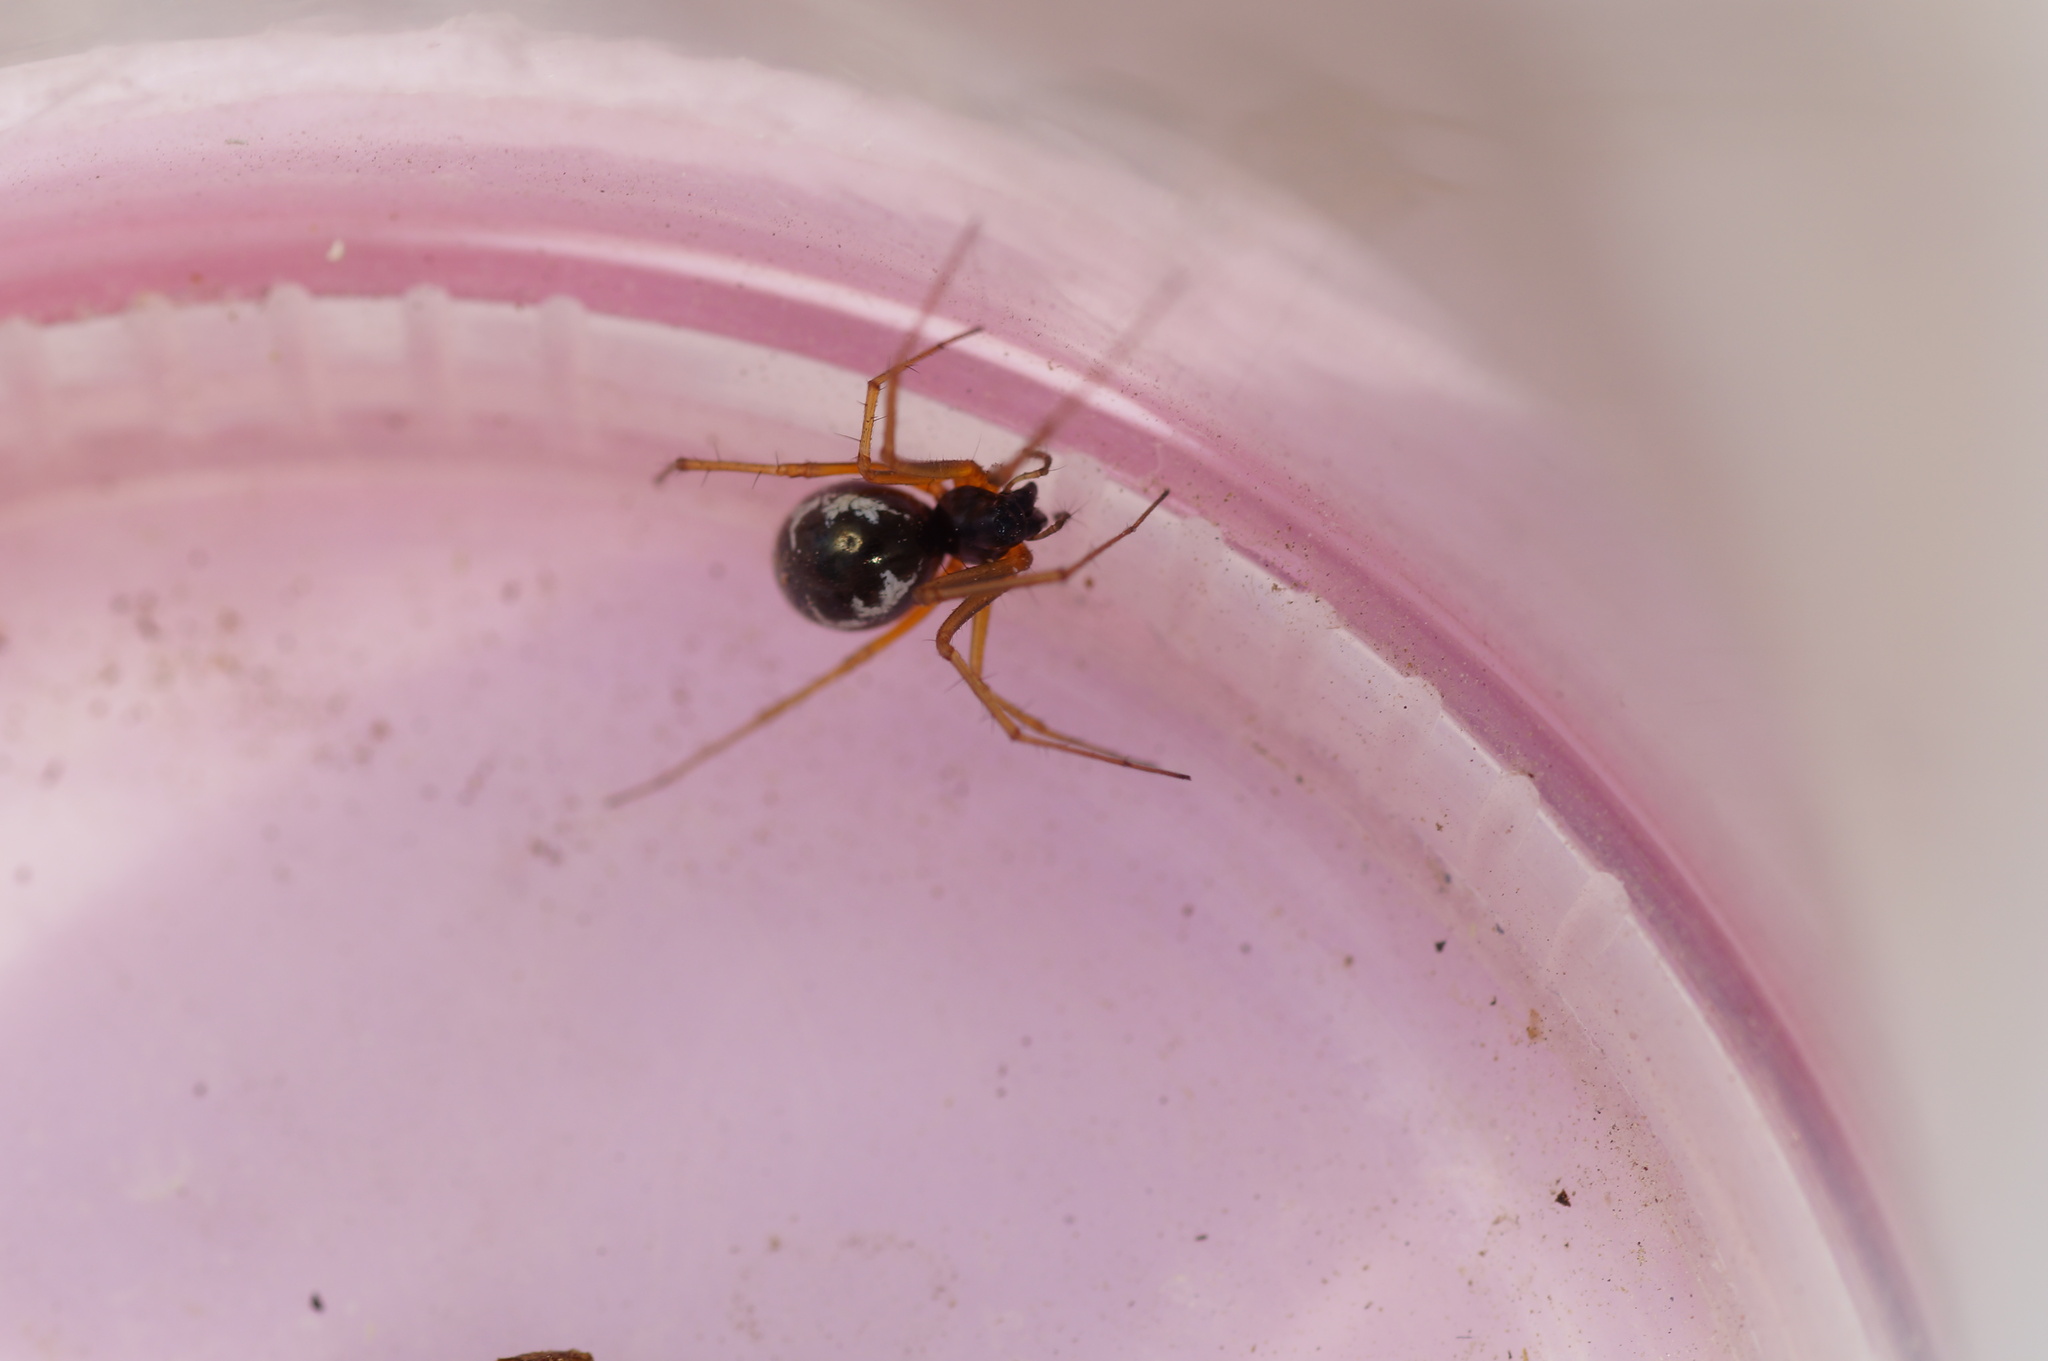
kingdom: Animalia
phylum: Arthropoda
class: Arachnida
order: Araneae
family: Linyphiidae
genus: Linyphia
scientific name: Linyphia hortensis
